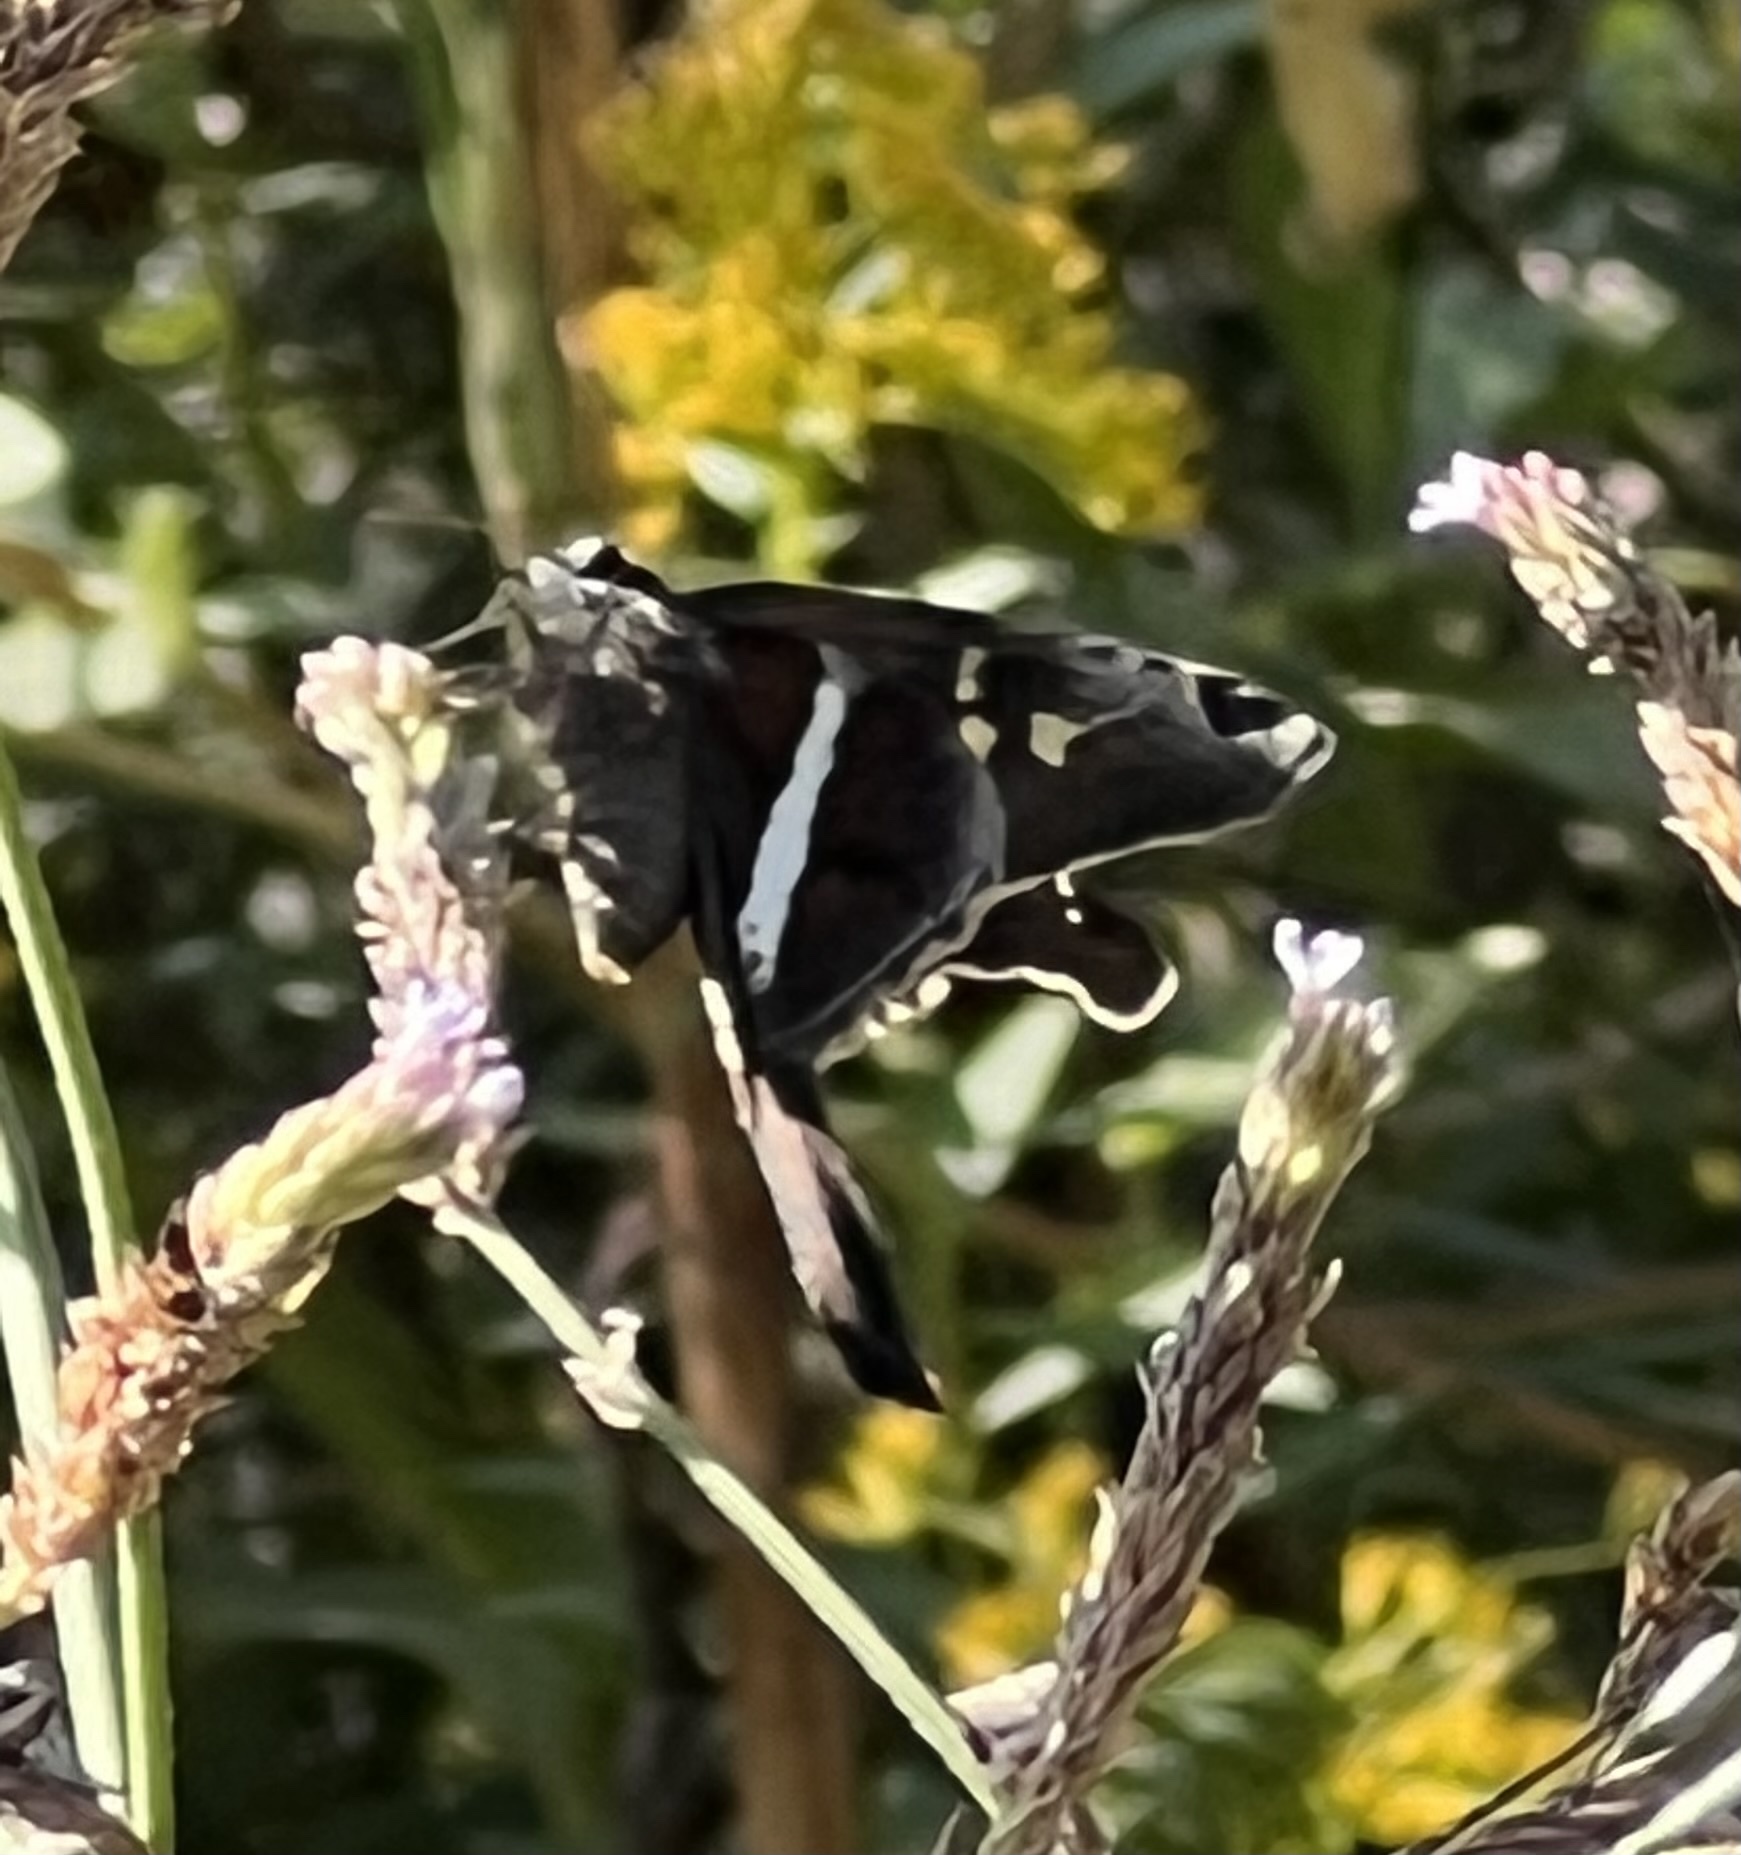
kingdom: Animalia
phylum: Arthropoda
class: Insecta
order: Lepidoptera
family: Hesperiidae
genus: Chioides
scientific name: Chioides catillus
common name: Silverbanded skipper
